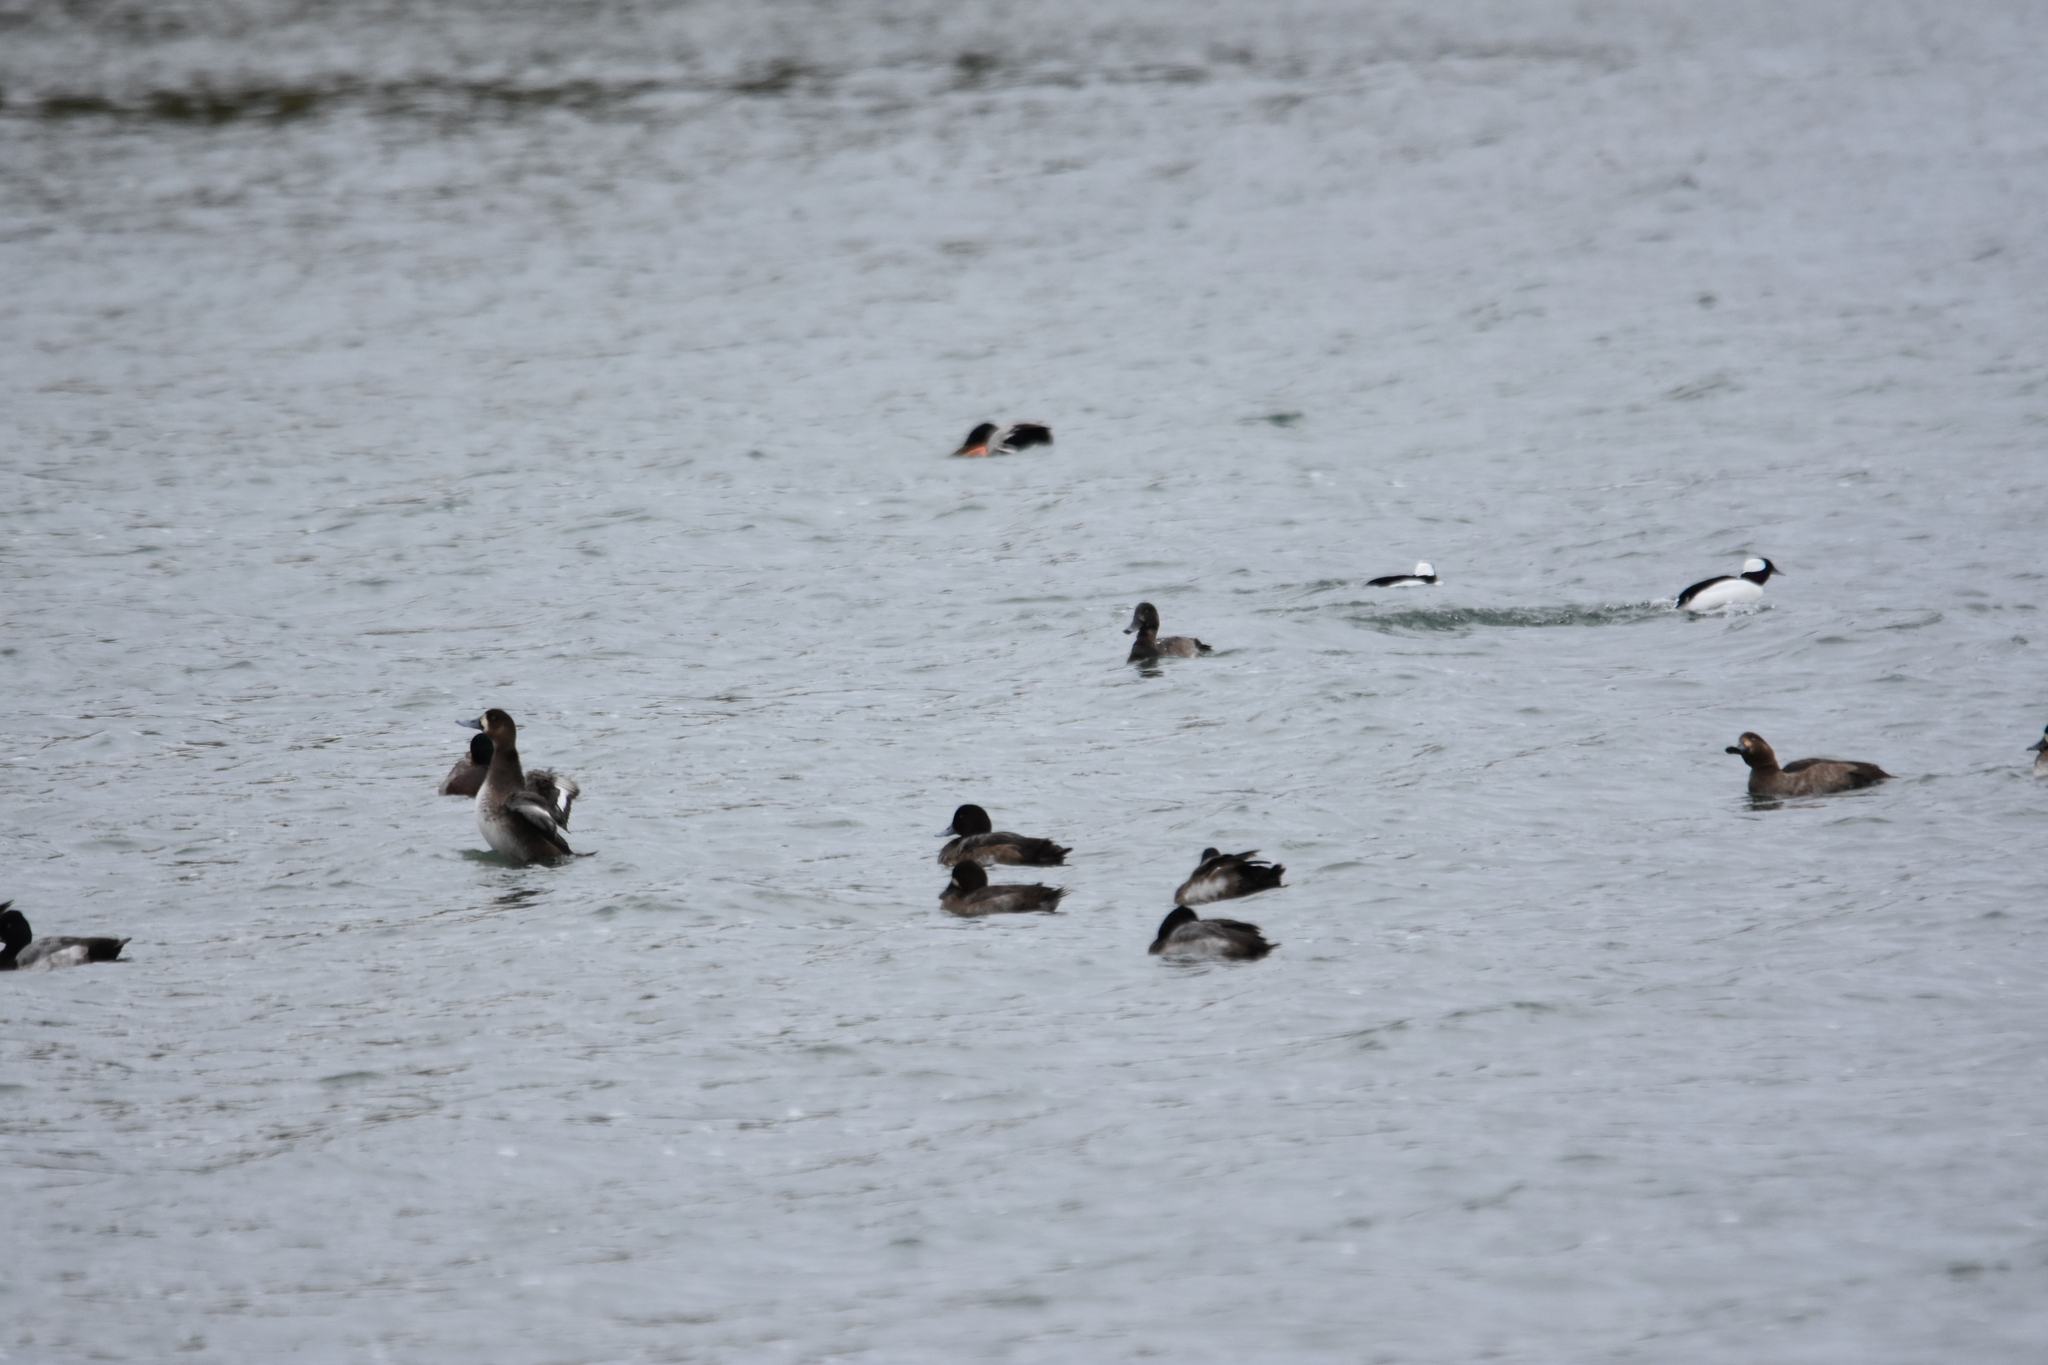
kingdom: Animalia
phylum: Chordata
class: Aves
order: Anseriformes
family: Anatidae
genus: Aythya
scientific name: Aythya marila
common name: Greater scaup
